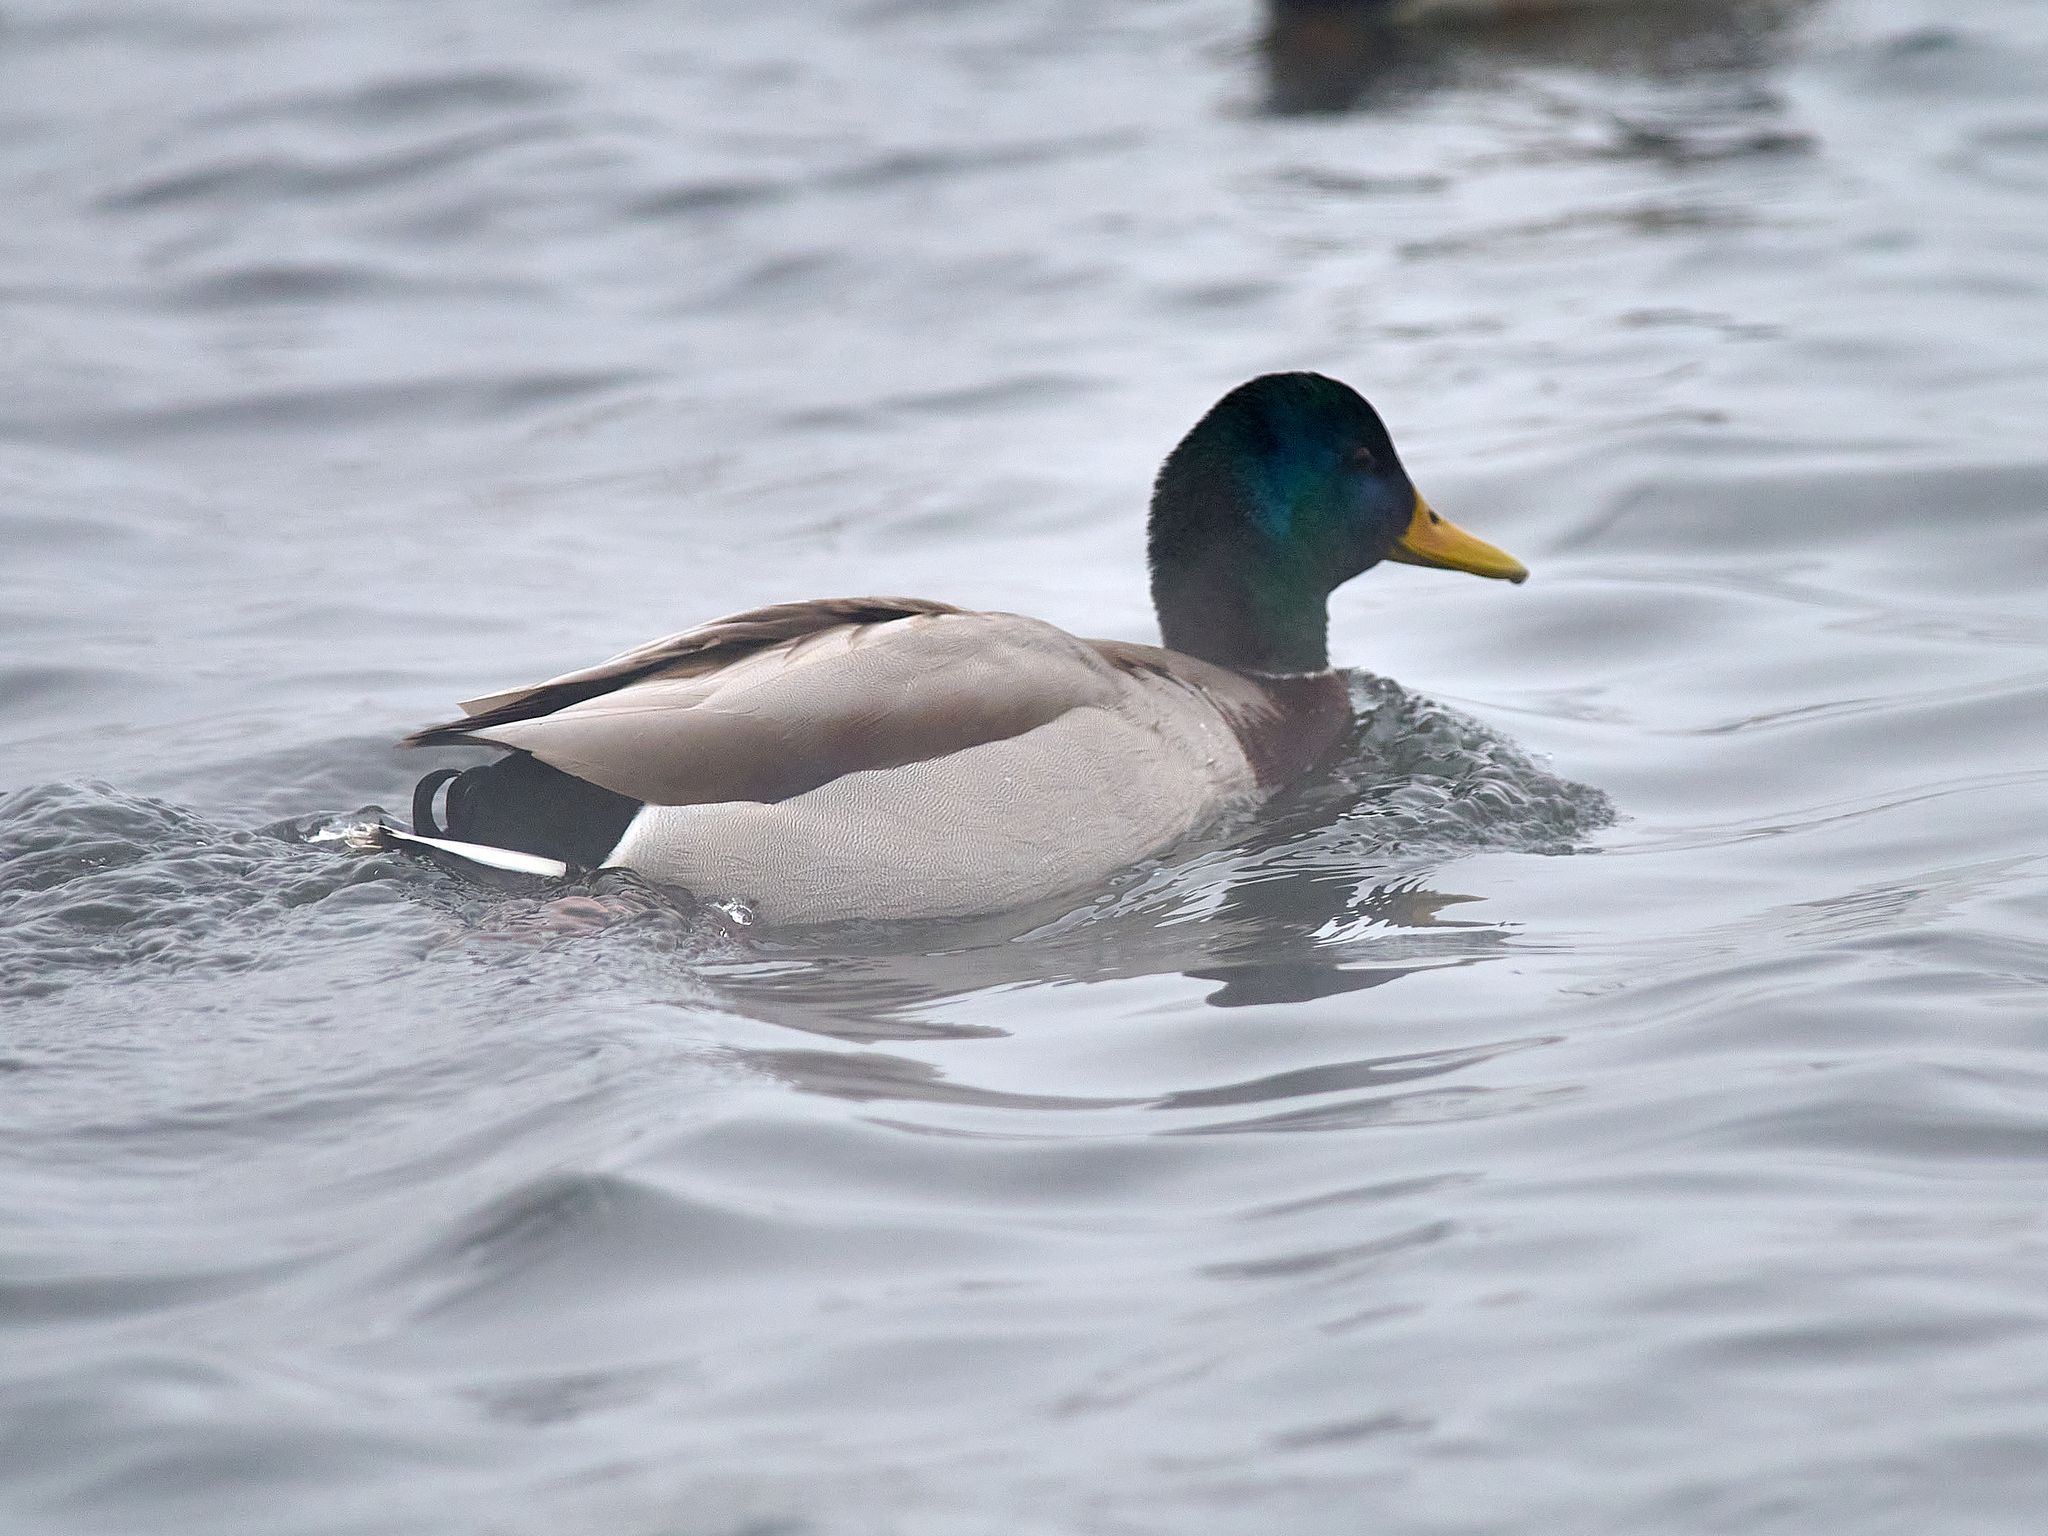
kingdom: Animalia
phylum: Chordata
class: Aves
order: Anseriformes
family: Anatidae
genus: Anas
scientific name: Anas platyrhynchos
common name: Mallard
